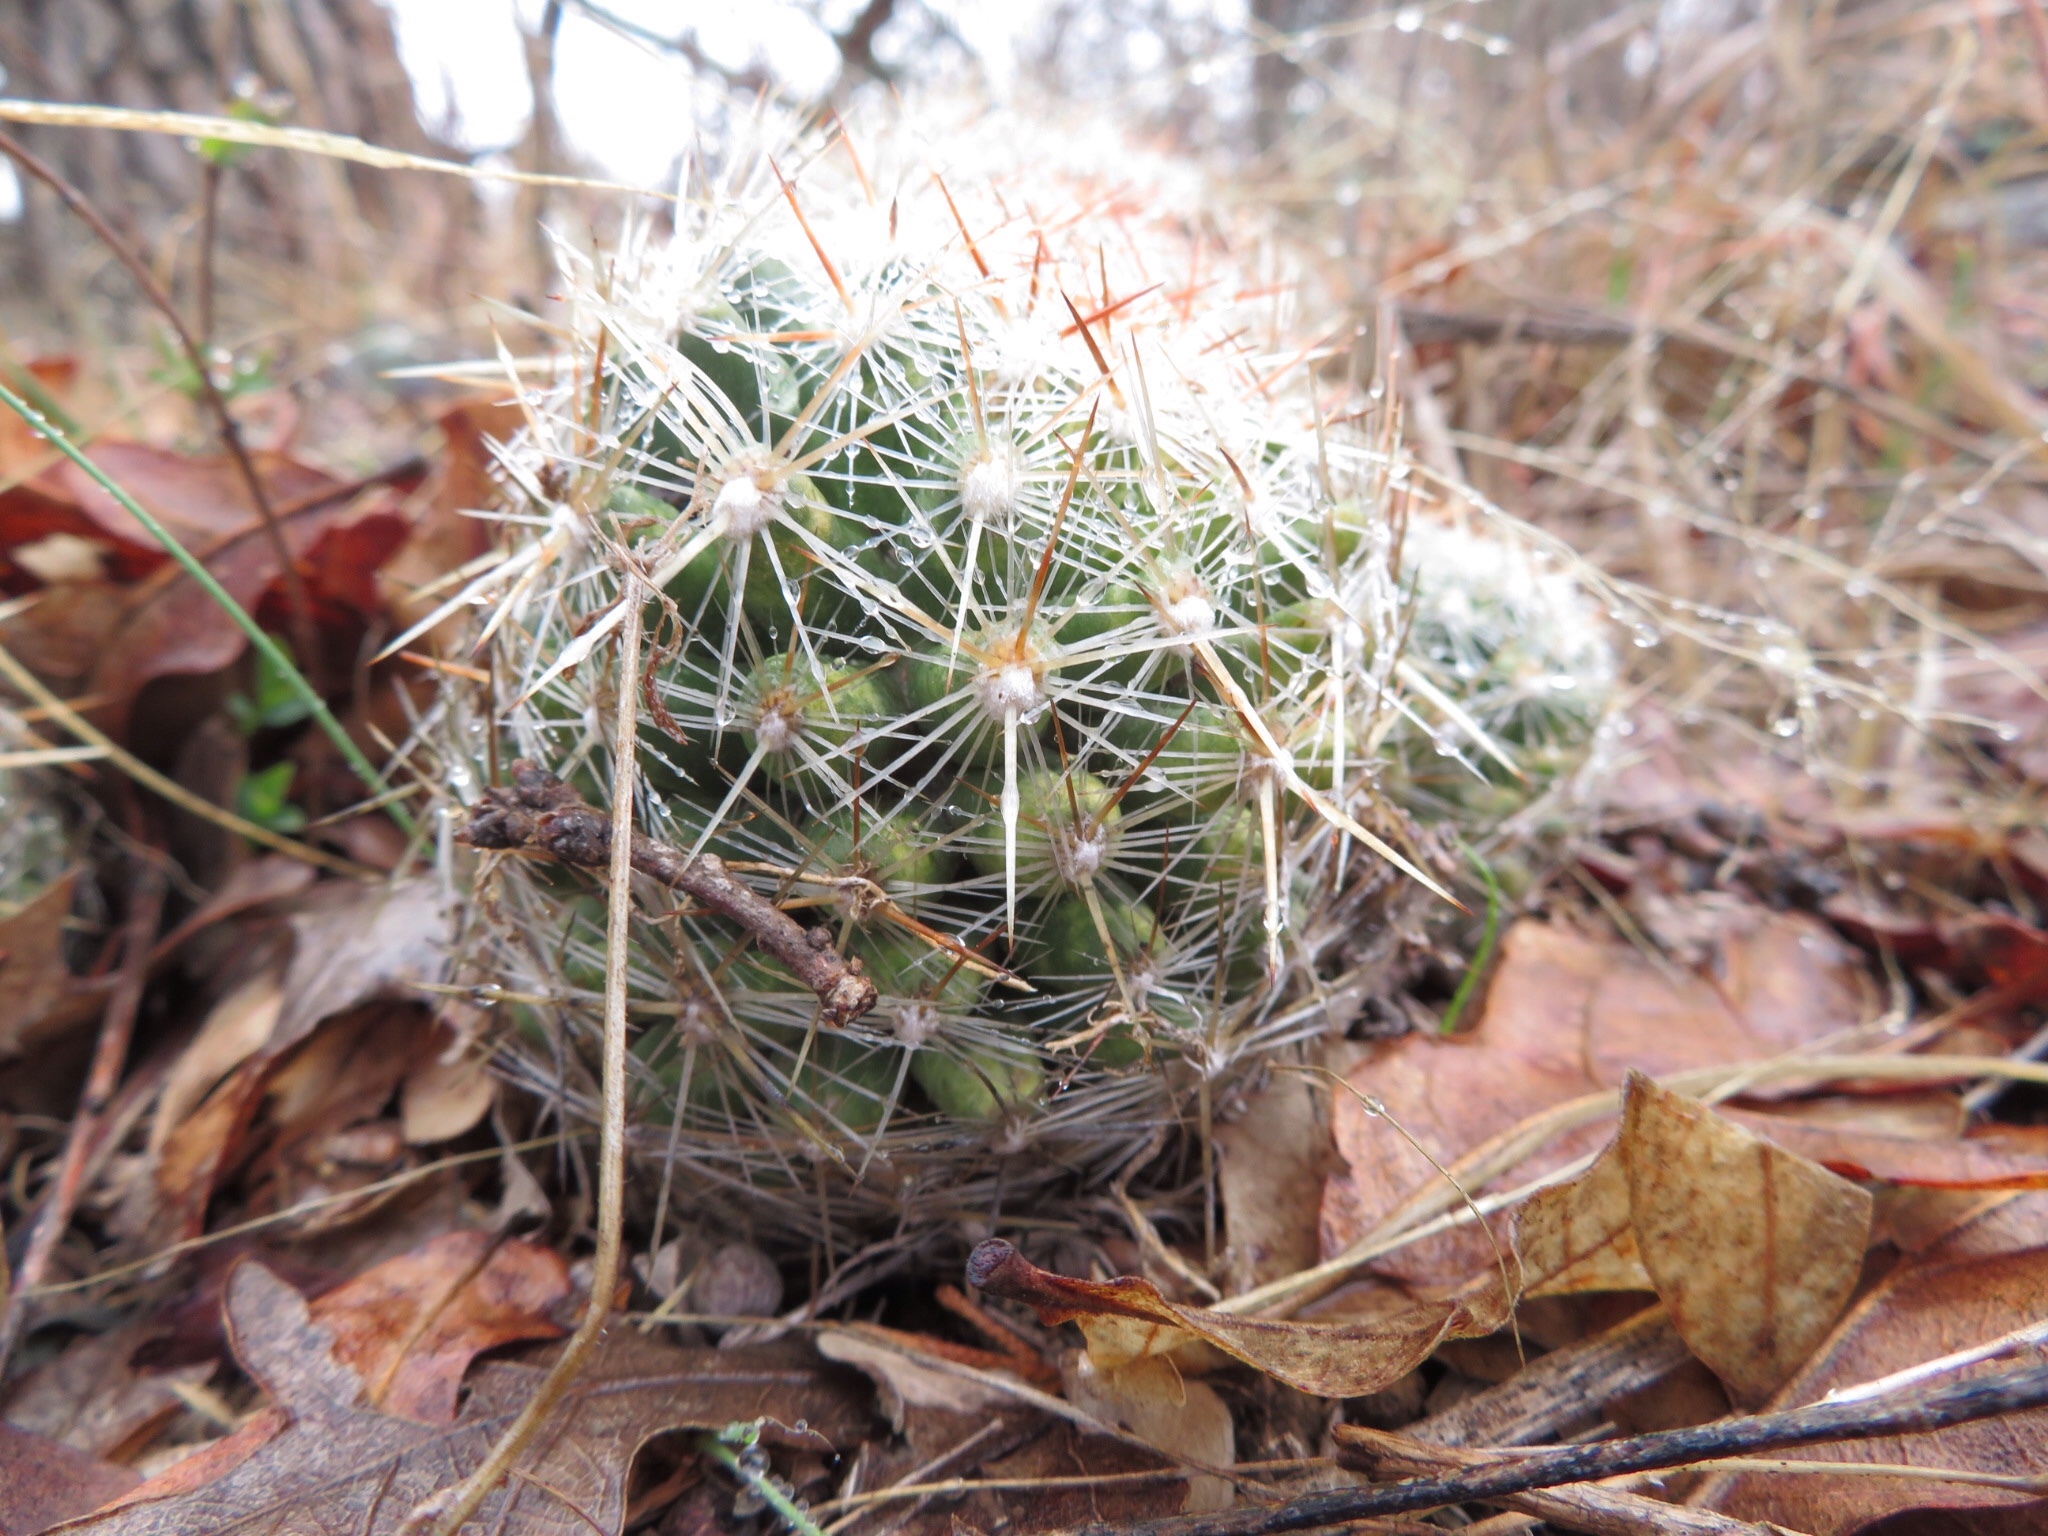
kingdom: Plantae
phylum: Tracheophyta
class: Magnoliopsida
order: Caryophyllales
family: Cactaceae
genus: Pelecyphora
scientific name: Pelecyphora vivipara
